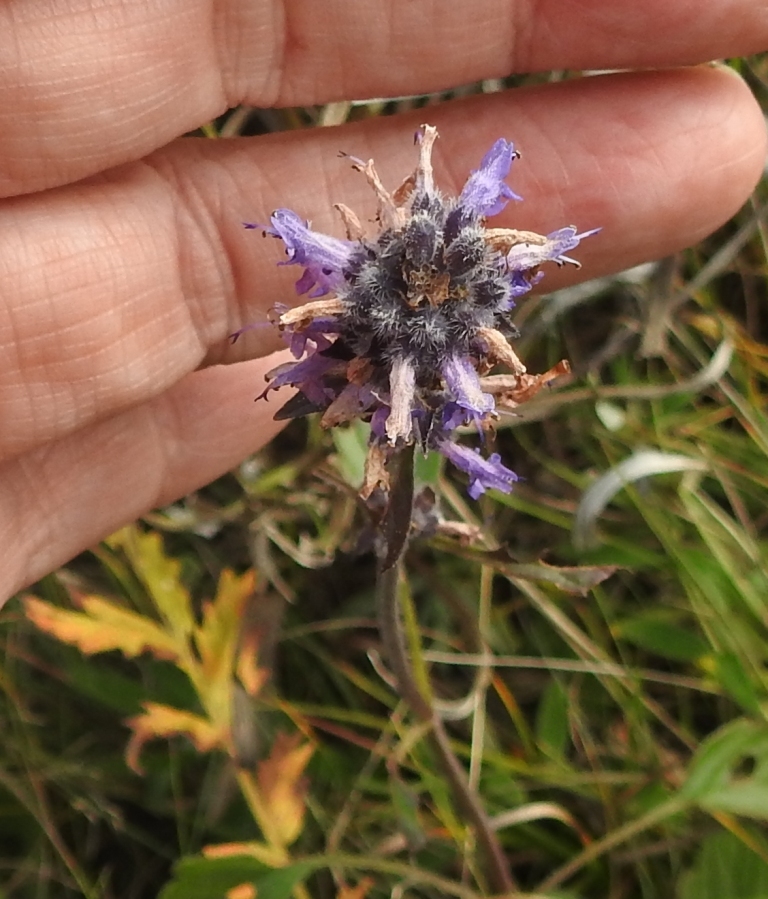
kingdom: Plantae
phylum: Tracheophyta
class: Magnoliopsida
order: Lamiales
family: Lamiaceae
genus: Nepeta
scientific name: Nepeta multifida
